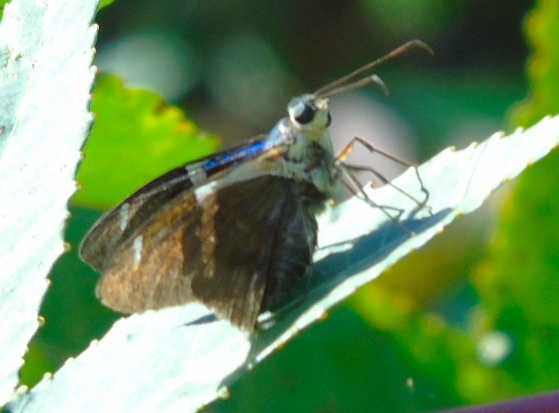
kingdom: Animalia
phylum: Arthropoda
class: Insecta
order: Lepidoptera
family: Hesperiidae
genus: Astraptes
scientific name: Astraptes fulgerator
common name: Two-barred flasher
